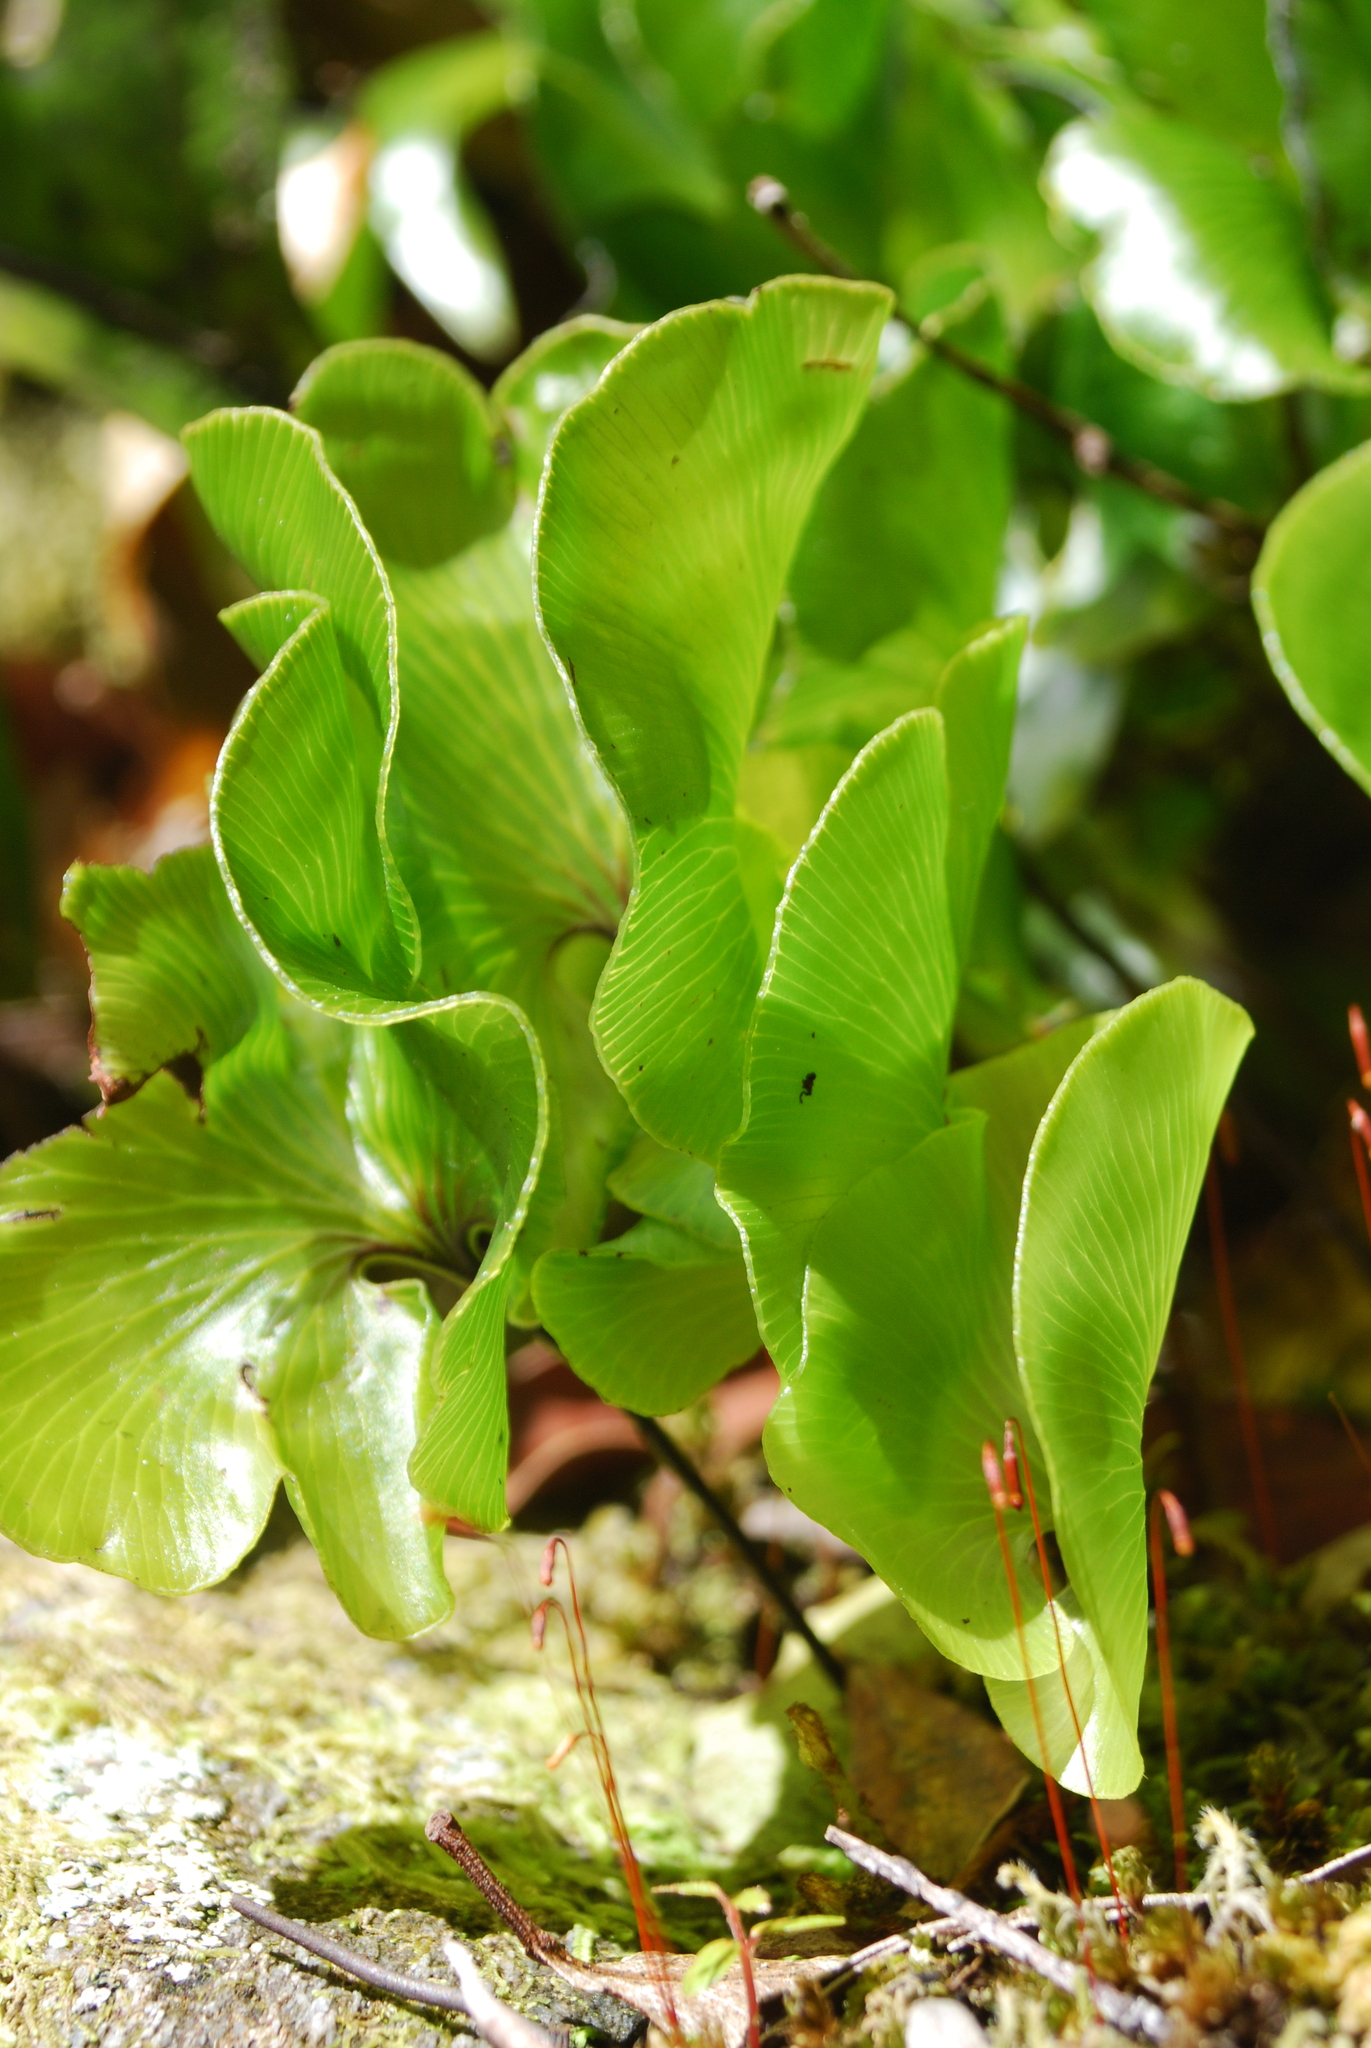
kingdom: Plantae
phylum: Tracheophyta
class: Polypodiopsida
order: Hymenophyllales
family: Hymenophyllaceae
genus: Hymenophyllum
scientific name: Hymenophyllum nephrophyllum
